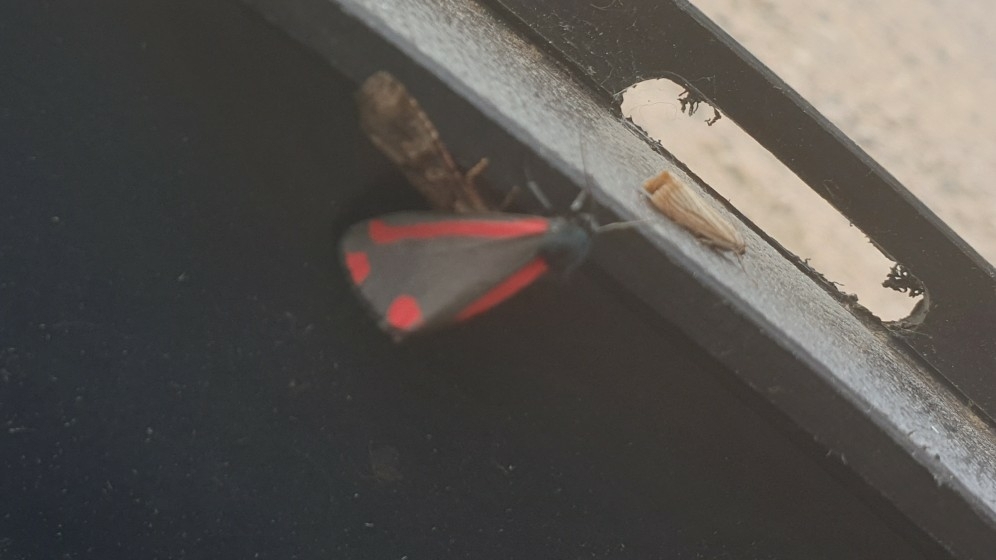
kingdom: Animalia
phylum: Arthropoda
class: Insecta
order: Lepidoptera
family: Erebidae
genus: Tyria
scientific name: Tyria jacobaeae
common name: Cinnabar
